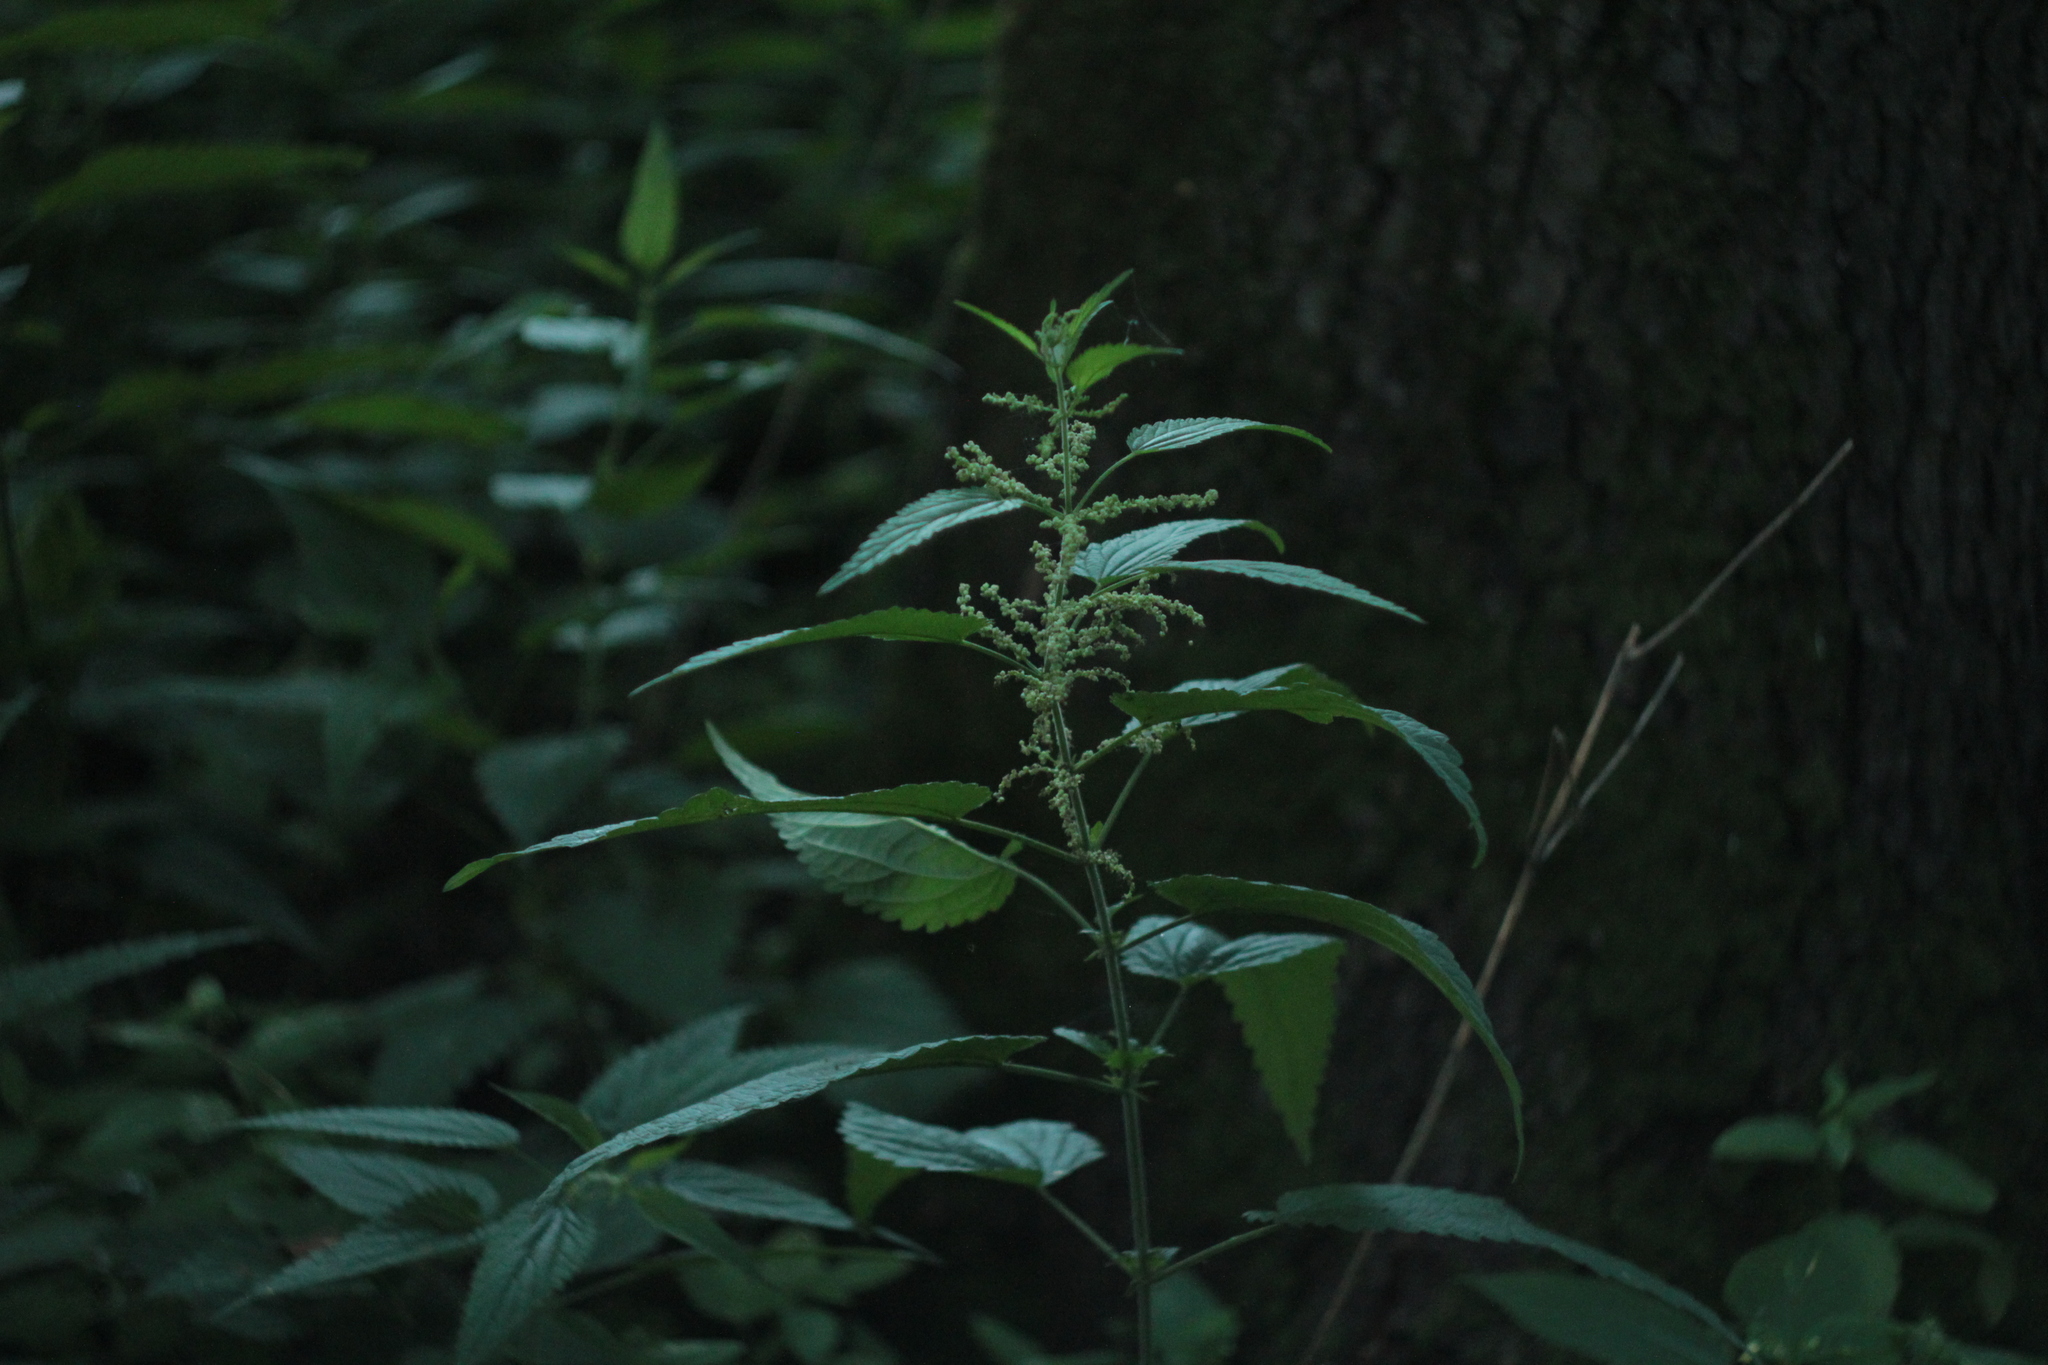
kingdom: Plantae
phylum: Tracheophyta
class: Magnoliopsida
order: Rosales
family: Urticaceae
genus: Urtica
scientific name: Urtica dioica
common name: Common nettle
